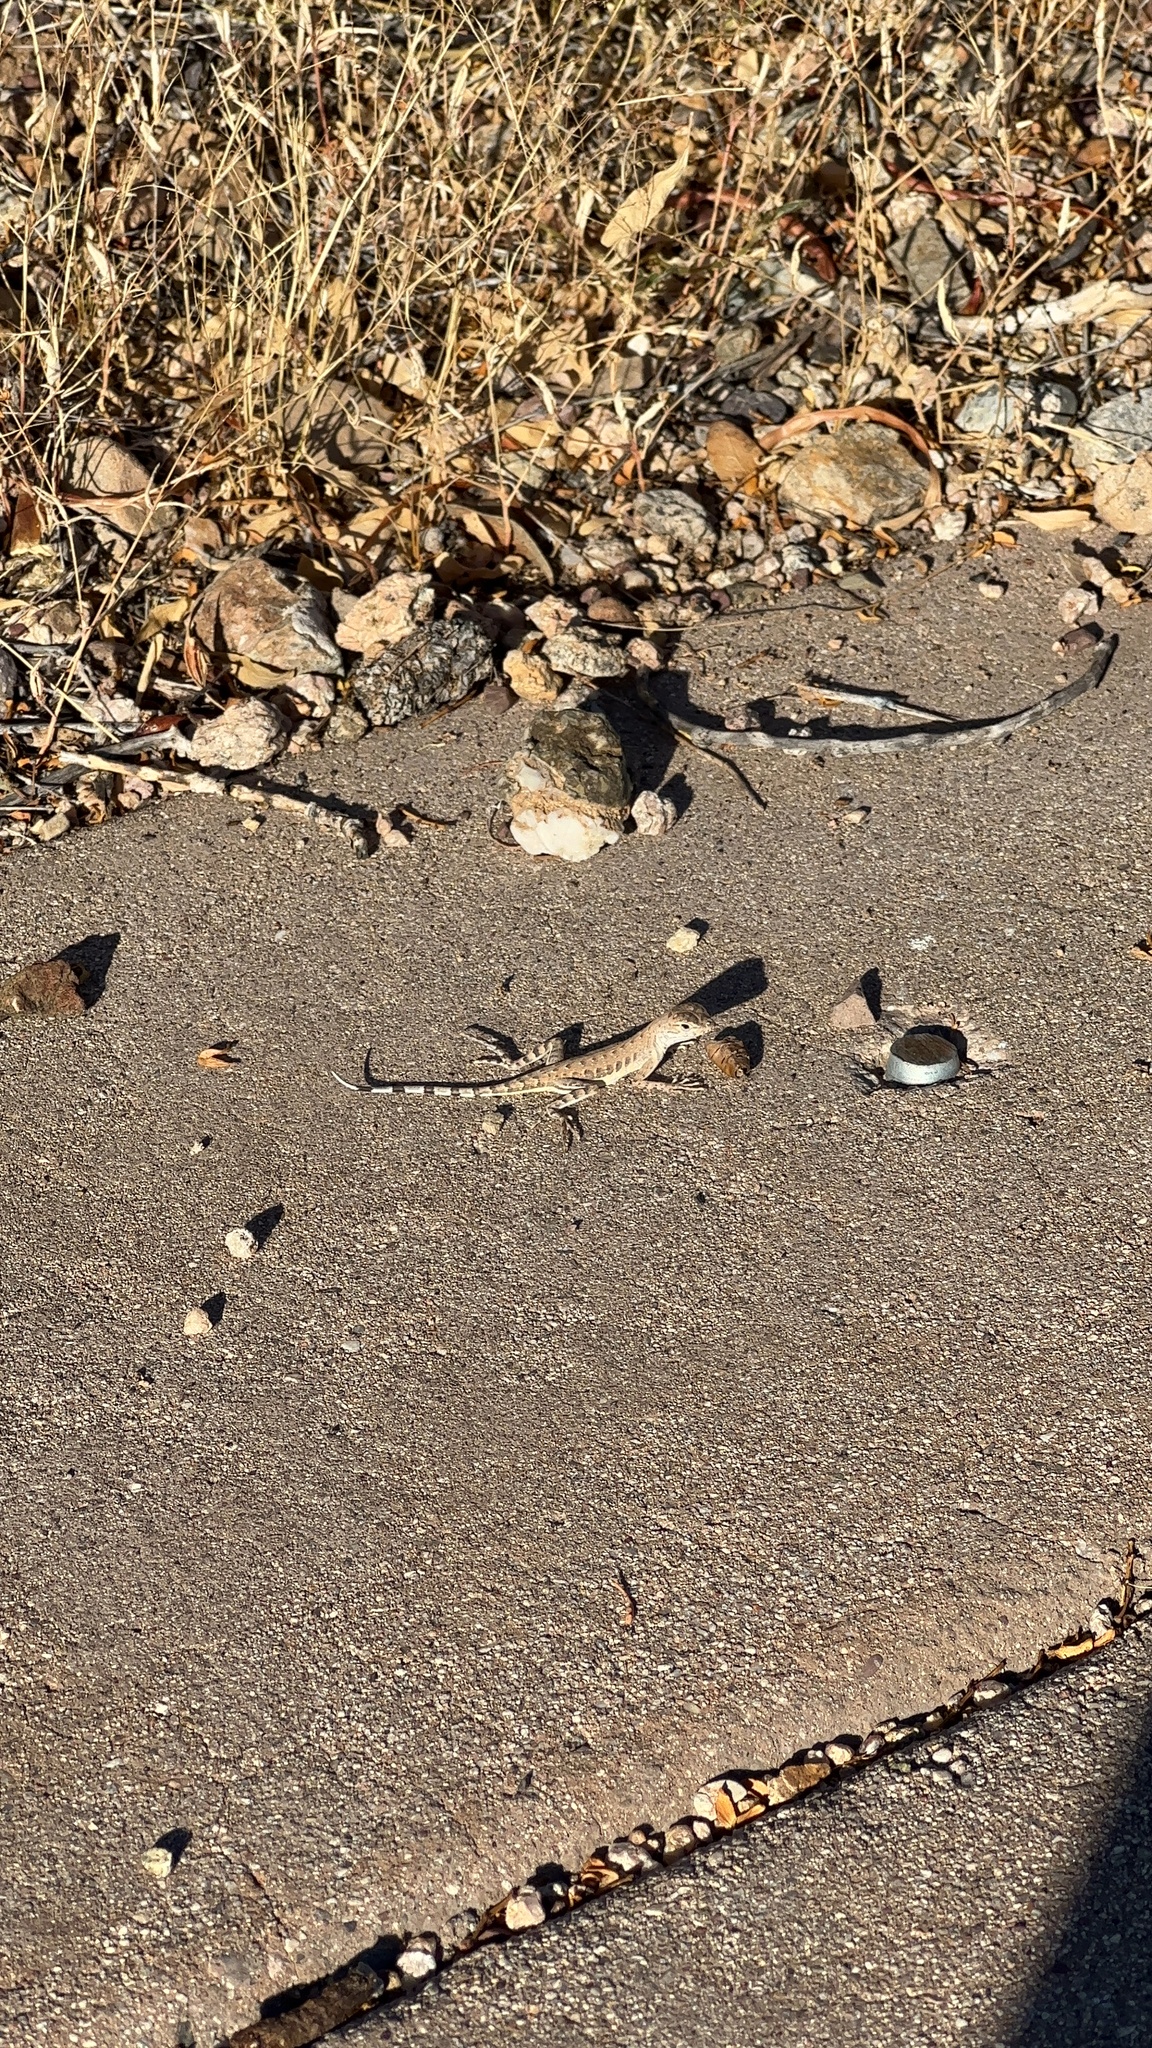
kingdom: Animalia
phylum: Chordata
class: Squamata
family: Phrynosomatidae
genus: Callisaurus
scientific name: Callisaurus draconoides
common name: Zebra-tailed lizard
